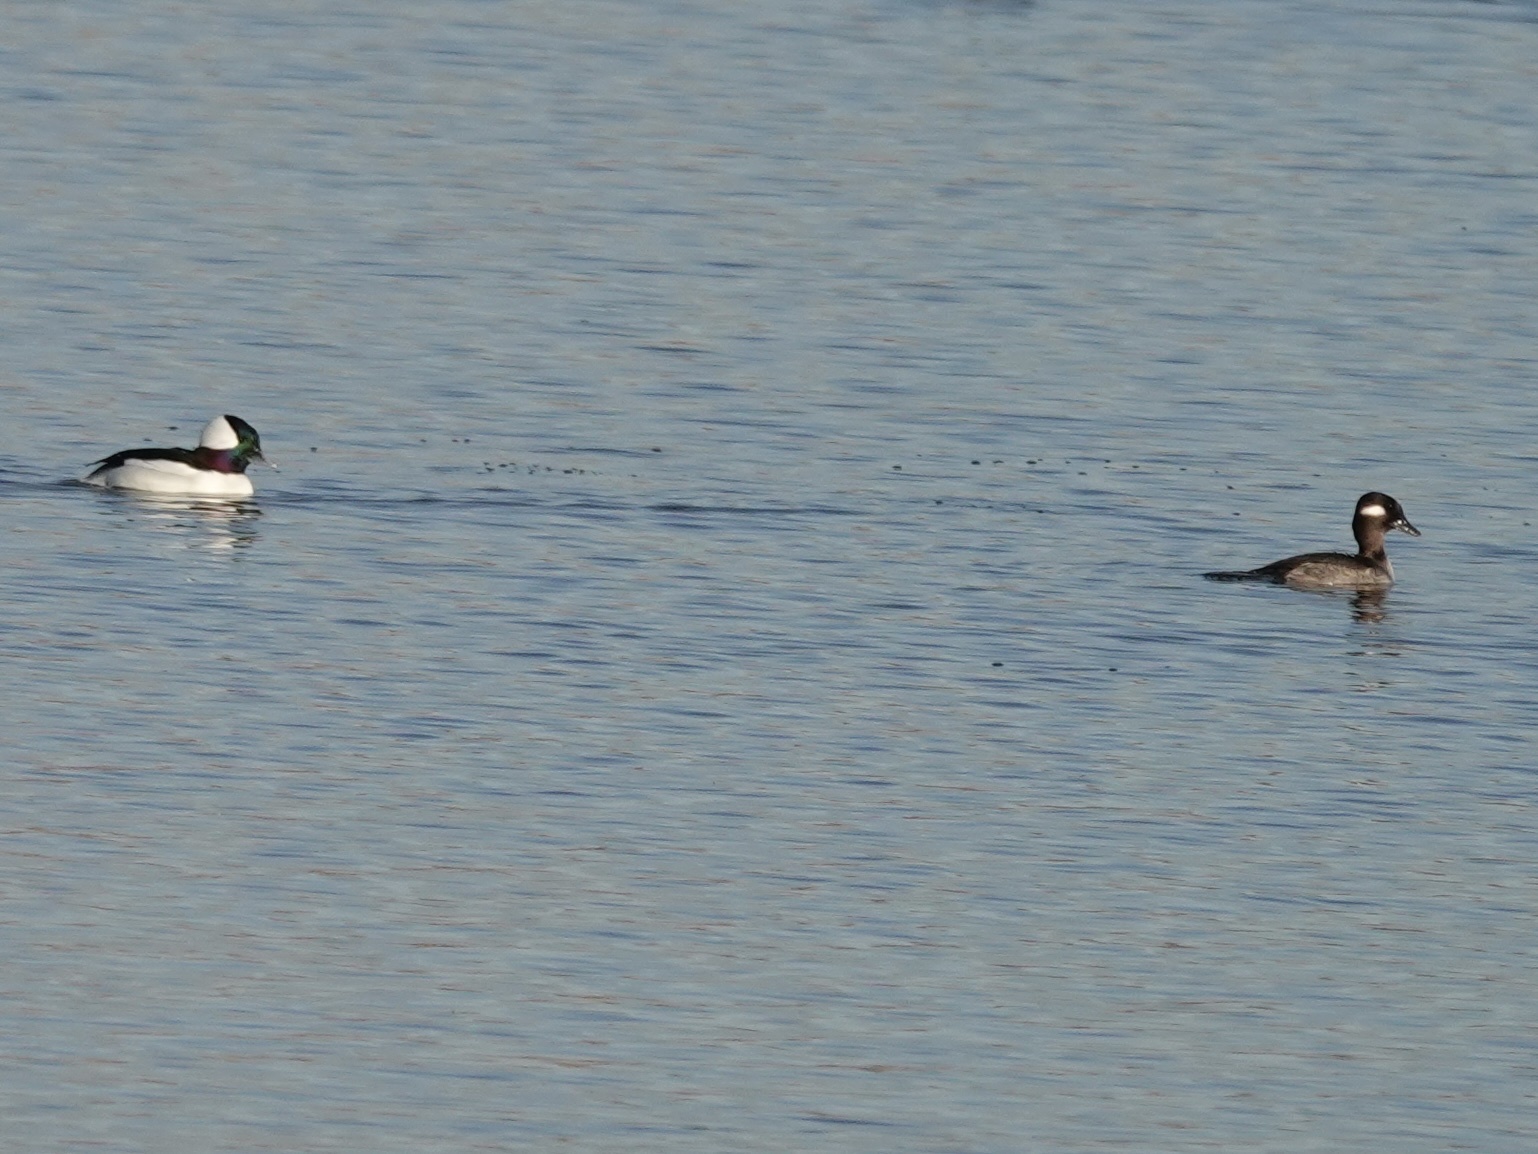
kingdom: Animalia
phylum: Chordata
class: Aves
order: Anseriformes
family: Anatidae
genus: Bucephala
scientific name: Bucephala albeola
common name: Bufflehead
